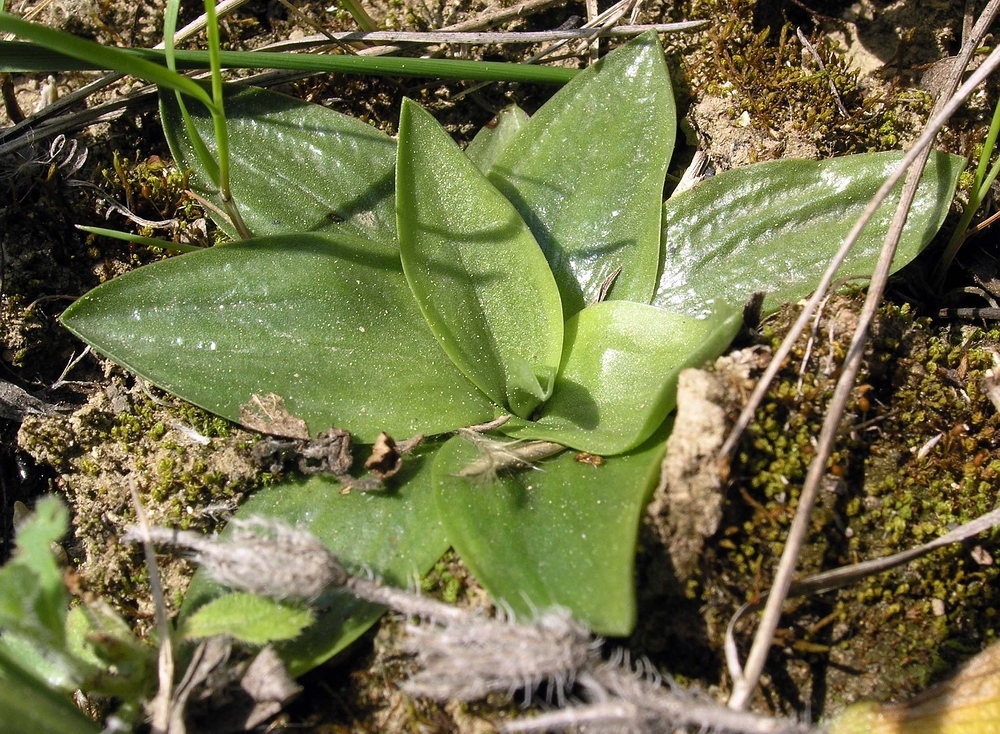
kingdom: Plantae
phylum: Tracheophyta
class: Liliopsida
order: Asparagales
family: Orchidaceae
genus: Spiranthes
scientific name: Spiranthes spiralis
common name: Autumn lady's-tresses
